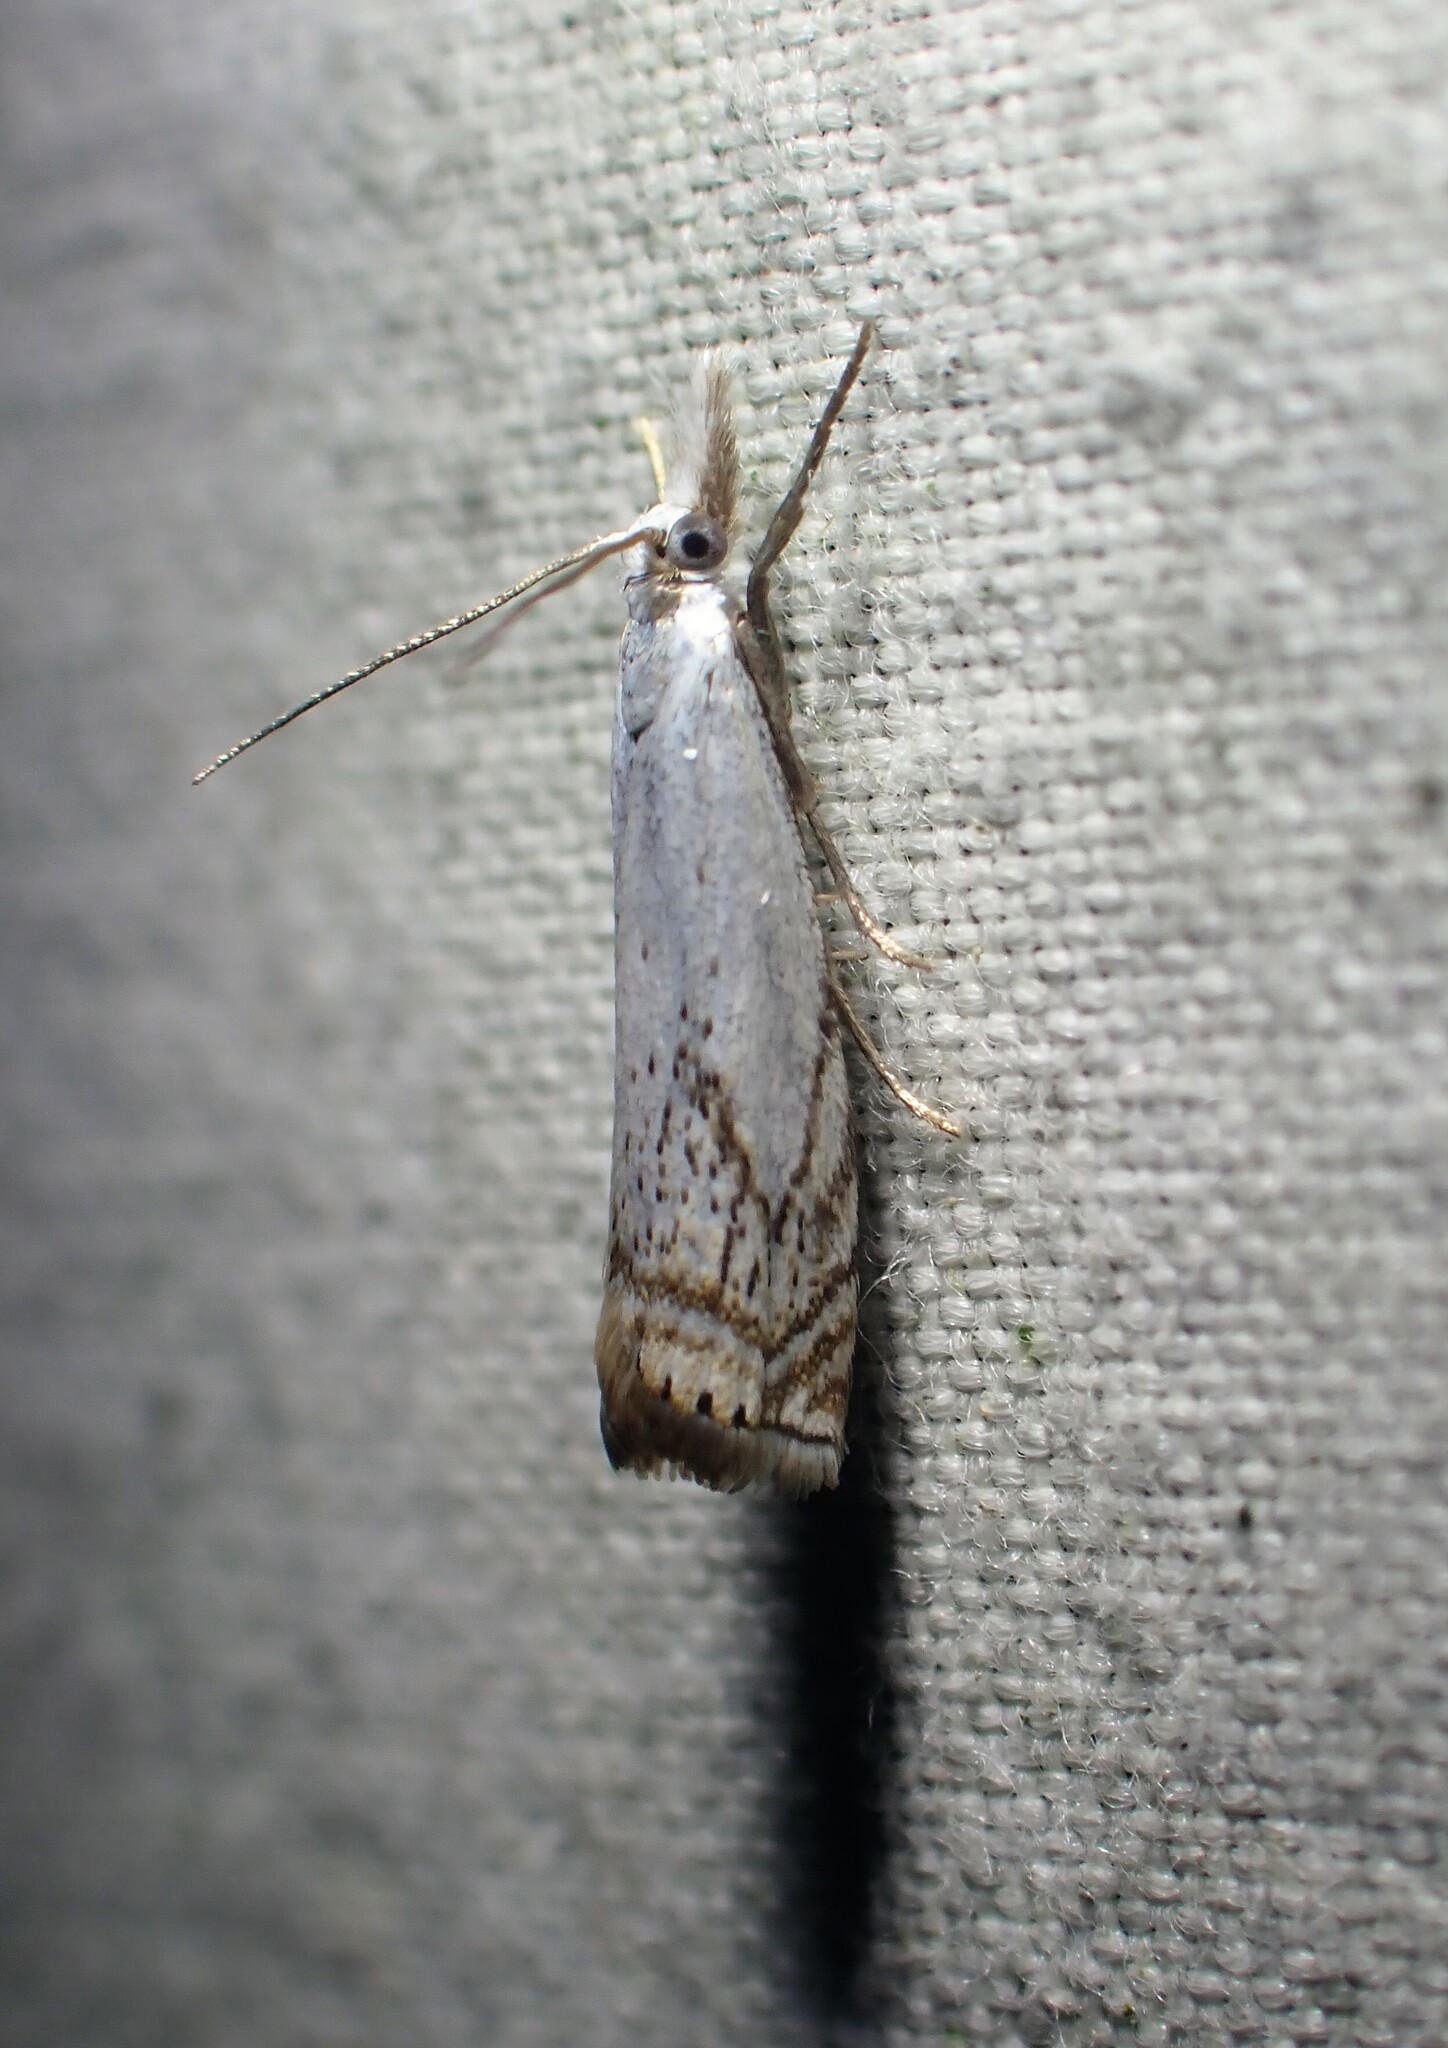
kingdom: Animalia
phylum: Arthropoda
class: Insecta
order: Lepidoptera
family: Crambidae
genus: Crambus
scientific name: Crambus albellus
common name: Small white grass-veneer
